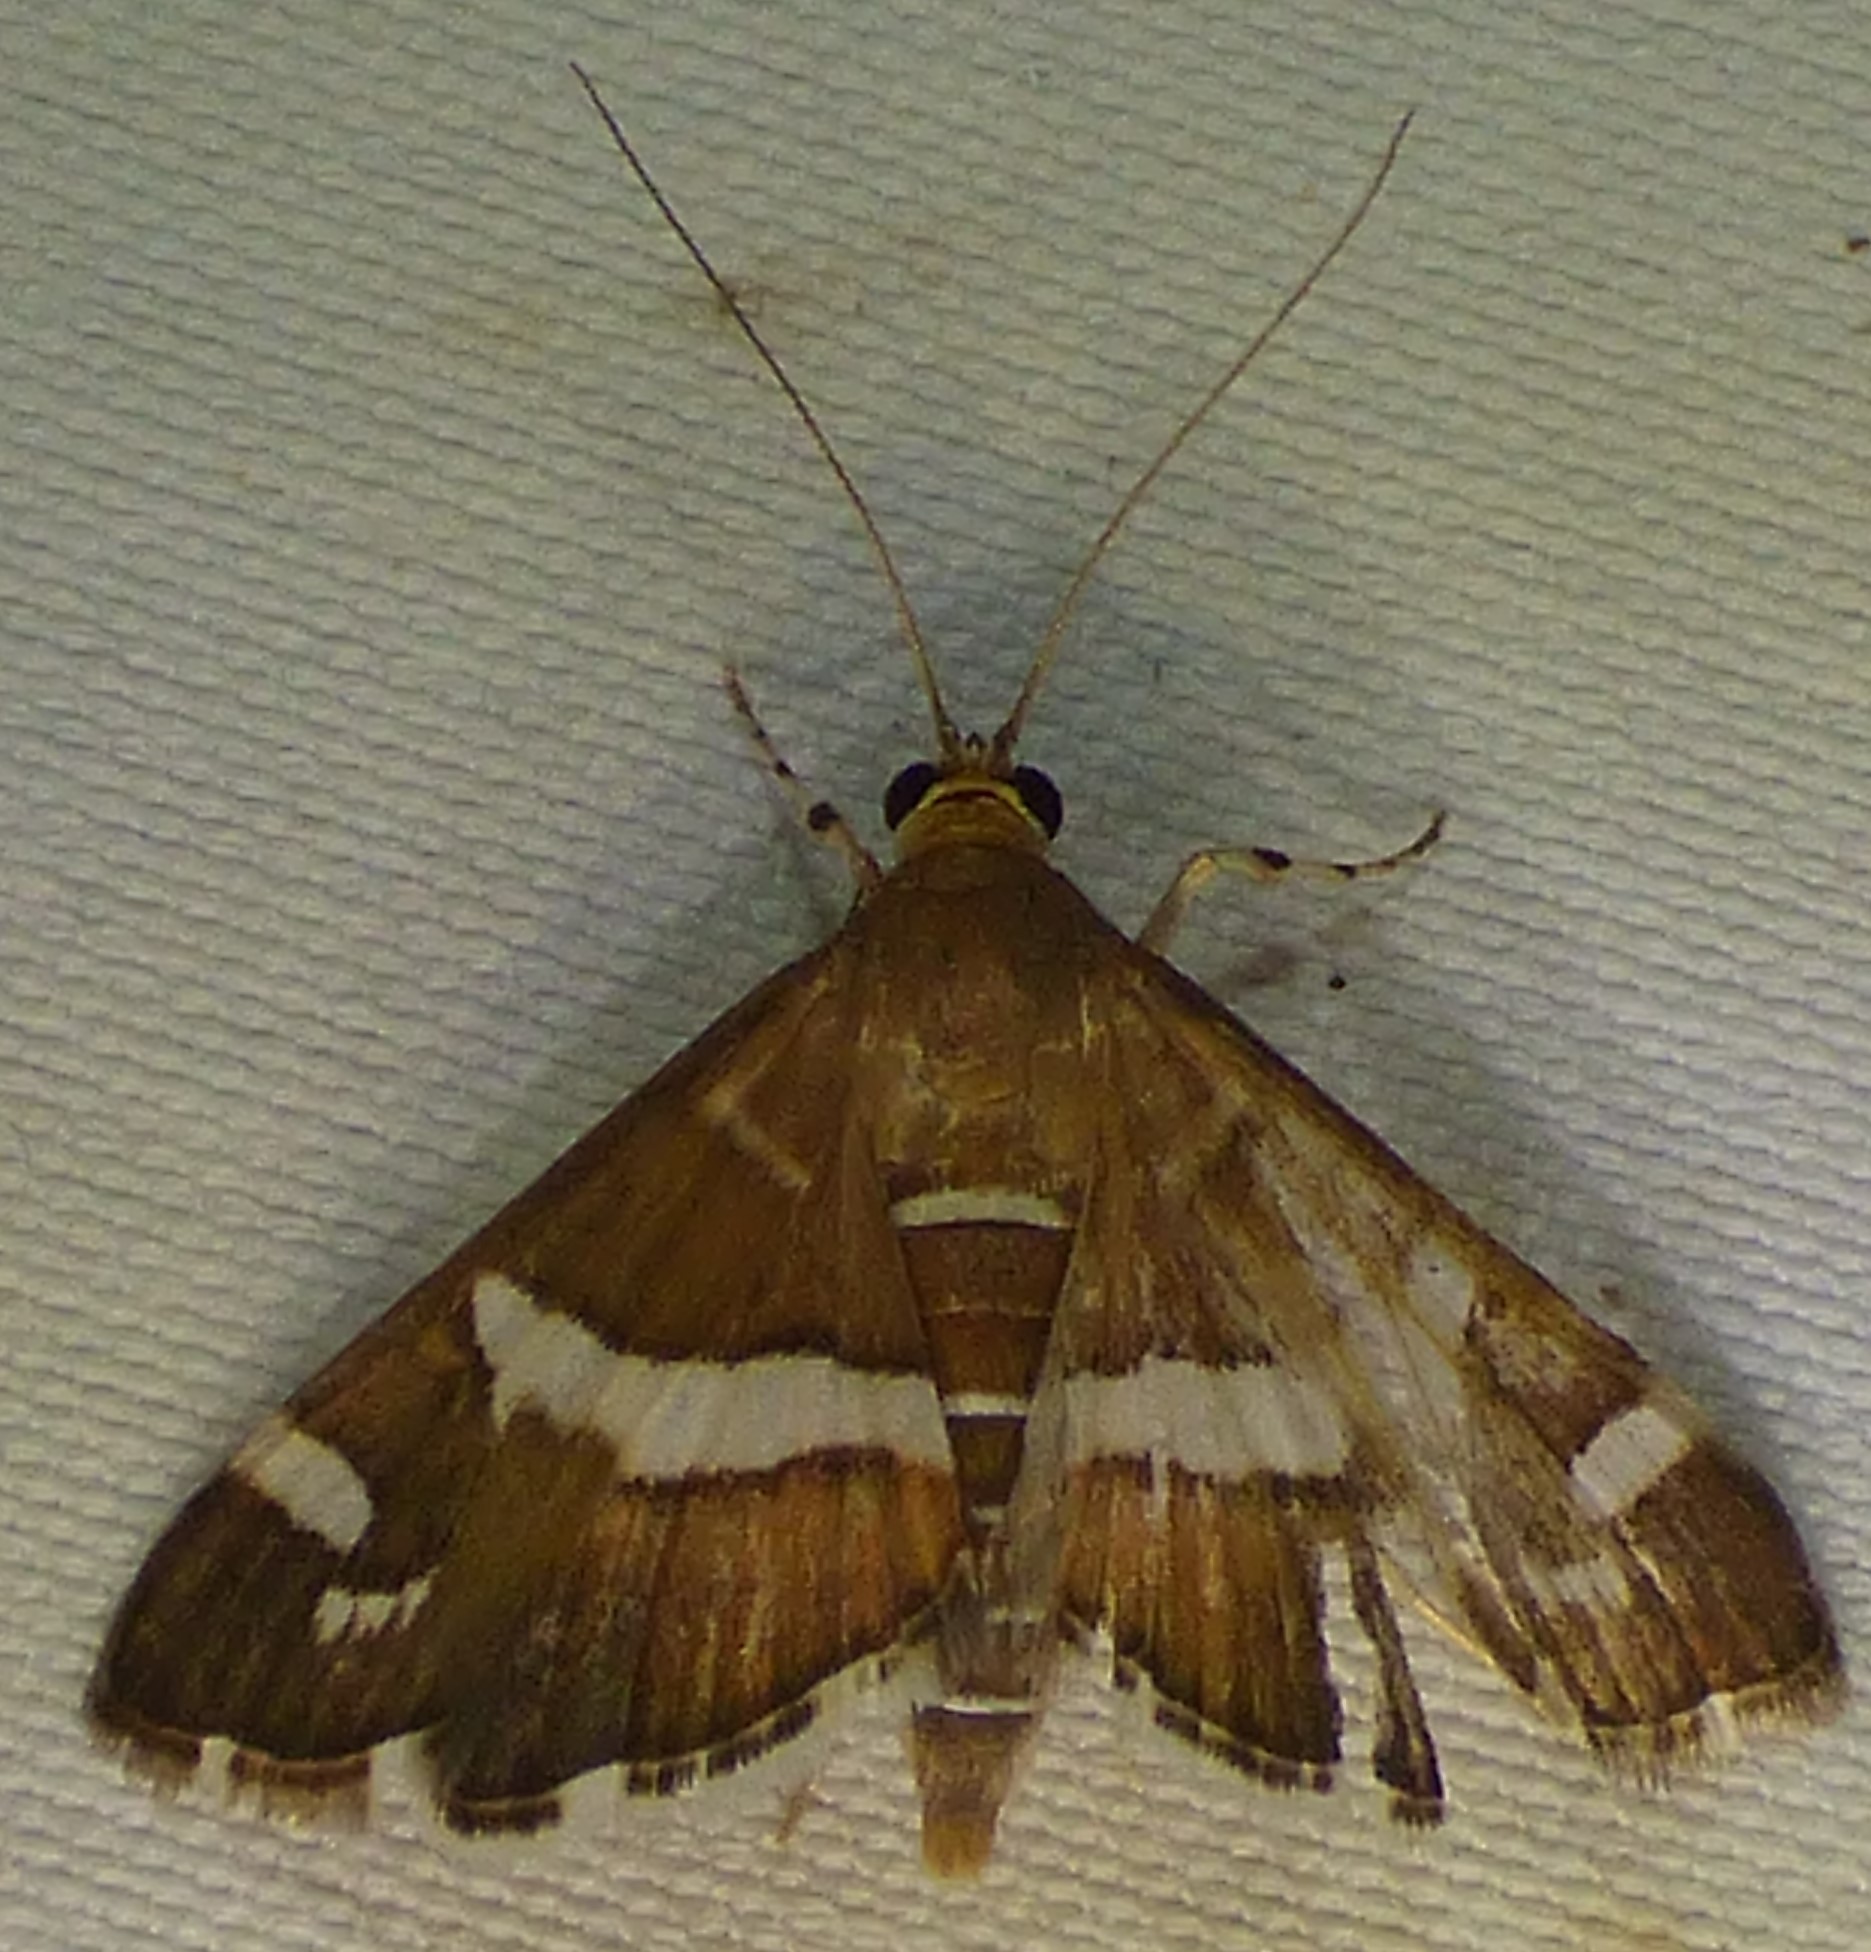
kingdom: Animalia
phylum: Arthropoda
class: Insecta
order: Lepidoptera
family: Crambidae
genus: Spoladea
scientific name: Spoladea recurvalis
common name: Beet webworm moth
